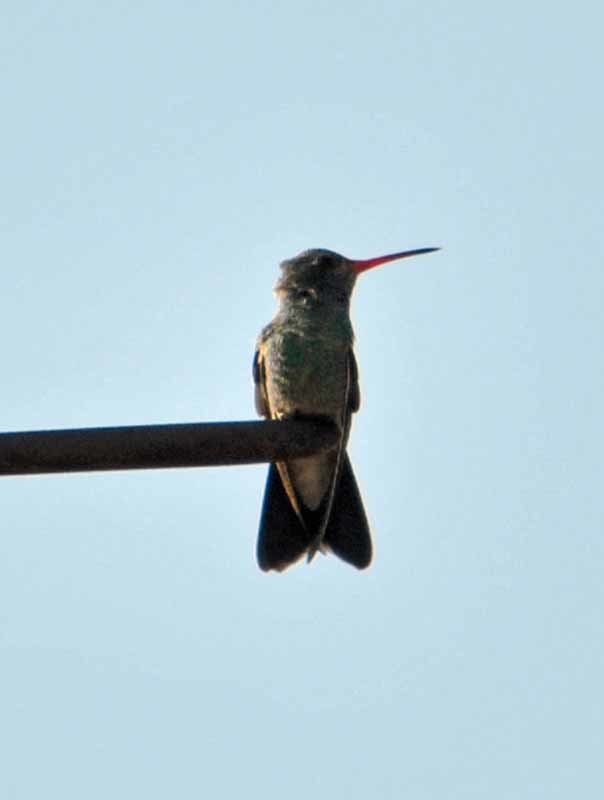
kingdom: Animalia
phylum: Chordata
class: Aves
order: Apodiformes
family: Trochilidae
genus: Cynanthus
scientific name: Cynanthus latirostris
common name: Broad-billed hummingbird
